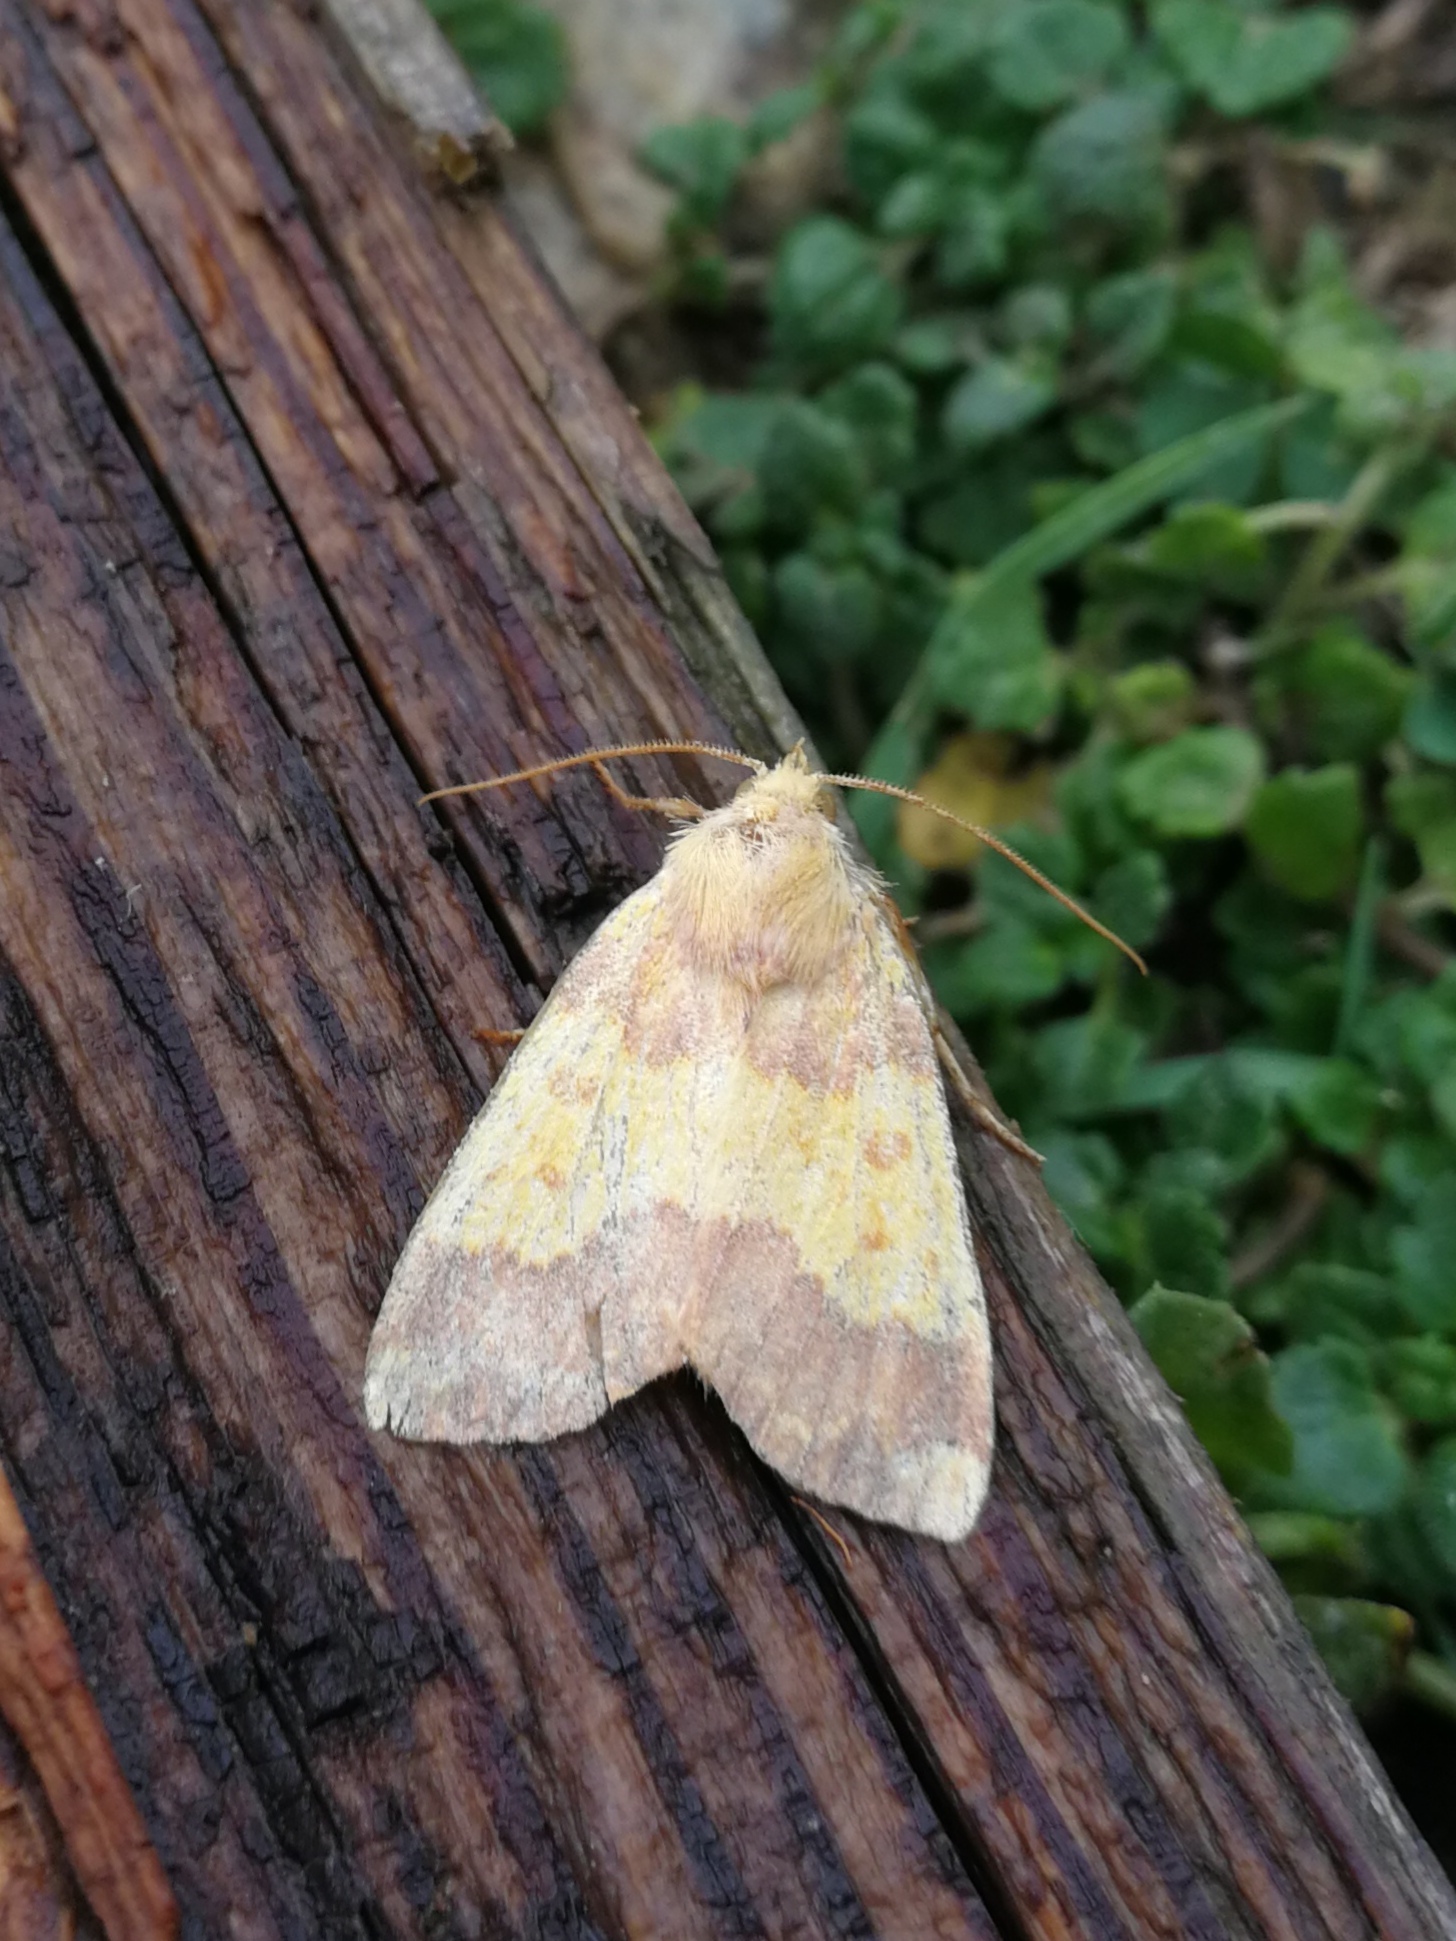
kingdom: Animalia
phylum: Arthropoda
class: Insecta
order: Lepidoptera
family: Noctuidae
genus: Tiliacea
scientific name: Tiliacea aurago
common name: Barred sallow
